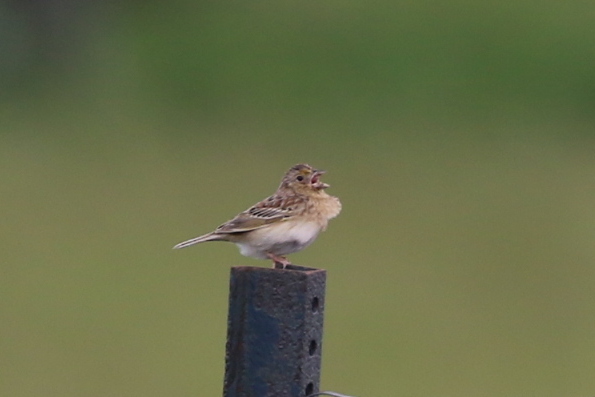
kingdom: Animalia
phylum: Chordata
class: Aves
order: Passeriformes
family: Passerellidae
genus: Ammodramus
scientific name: Ammodramus savannarum
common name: Grasshopper sparrow
